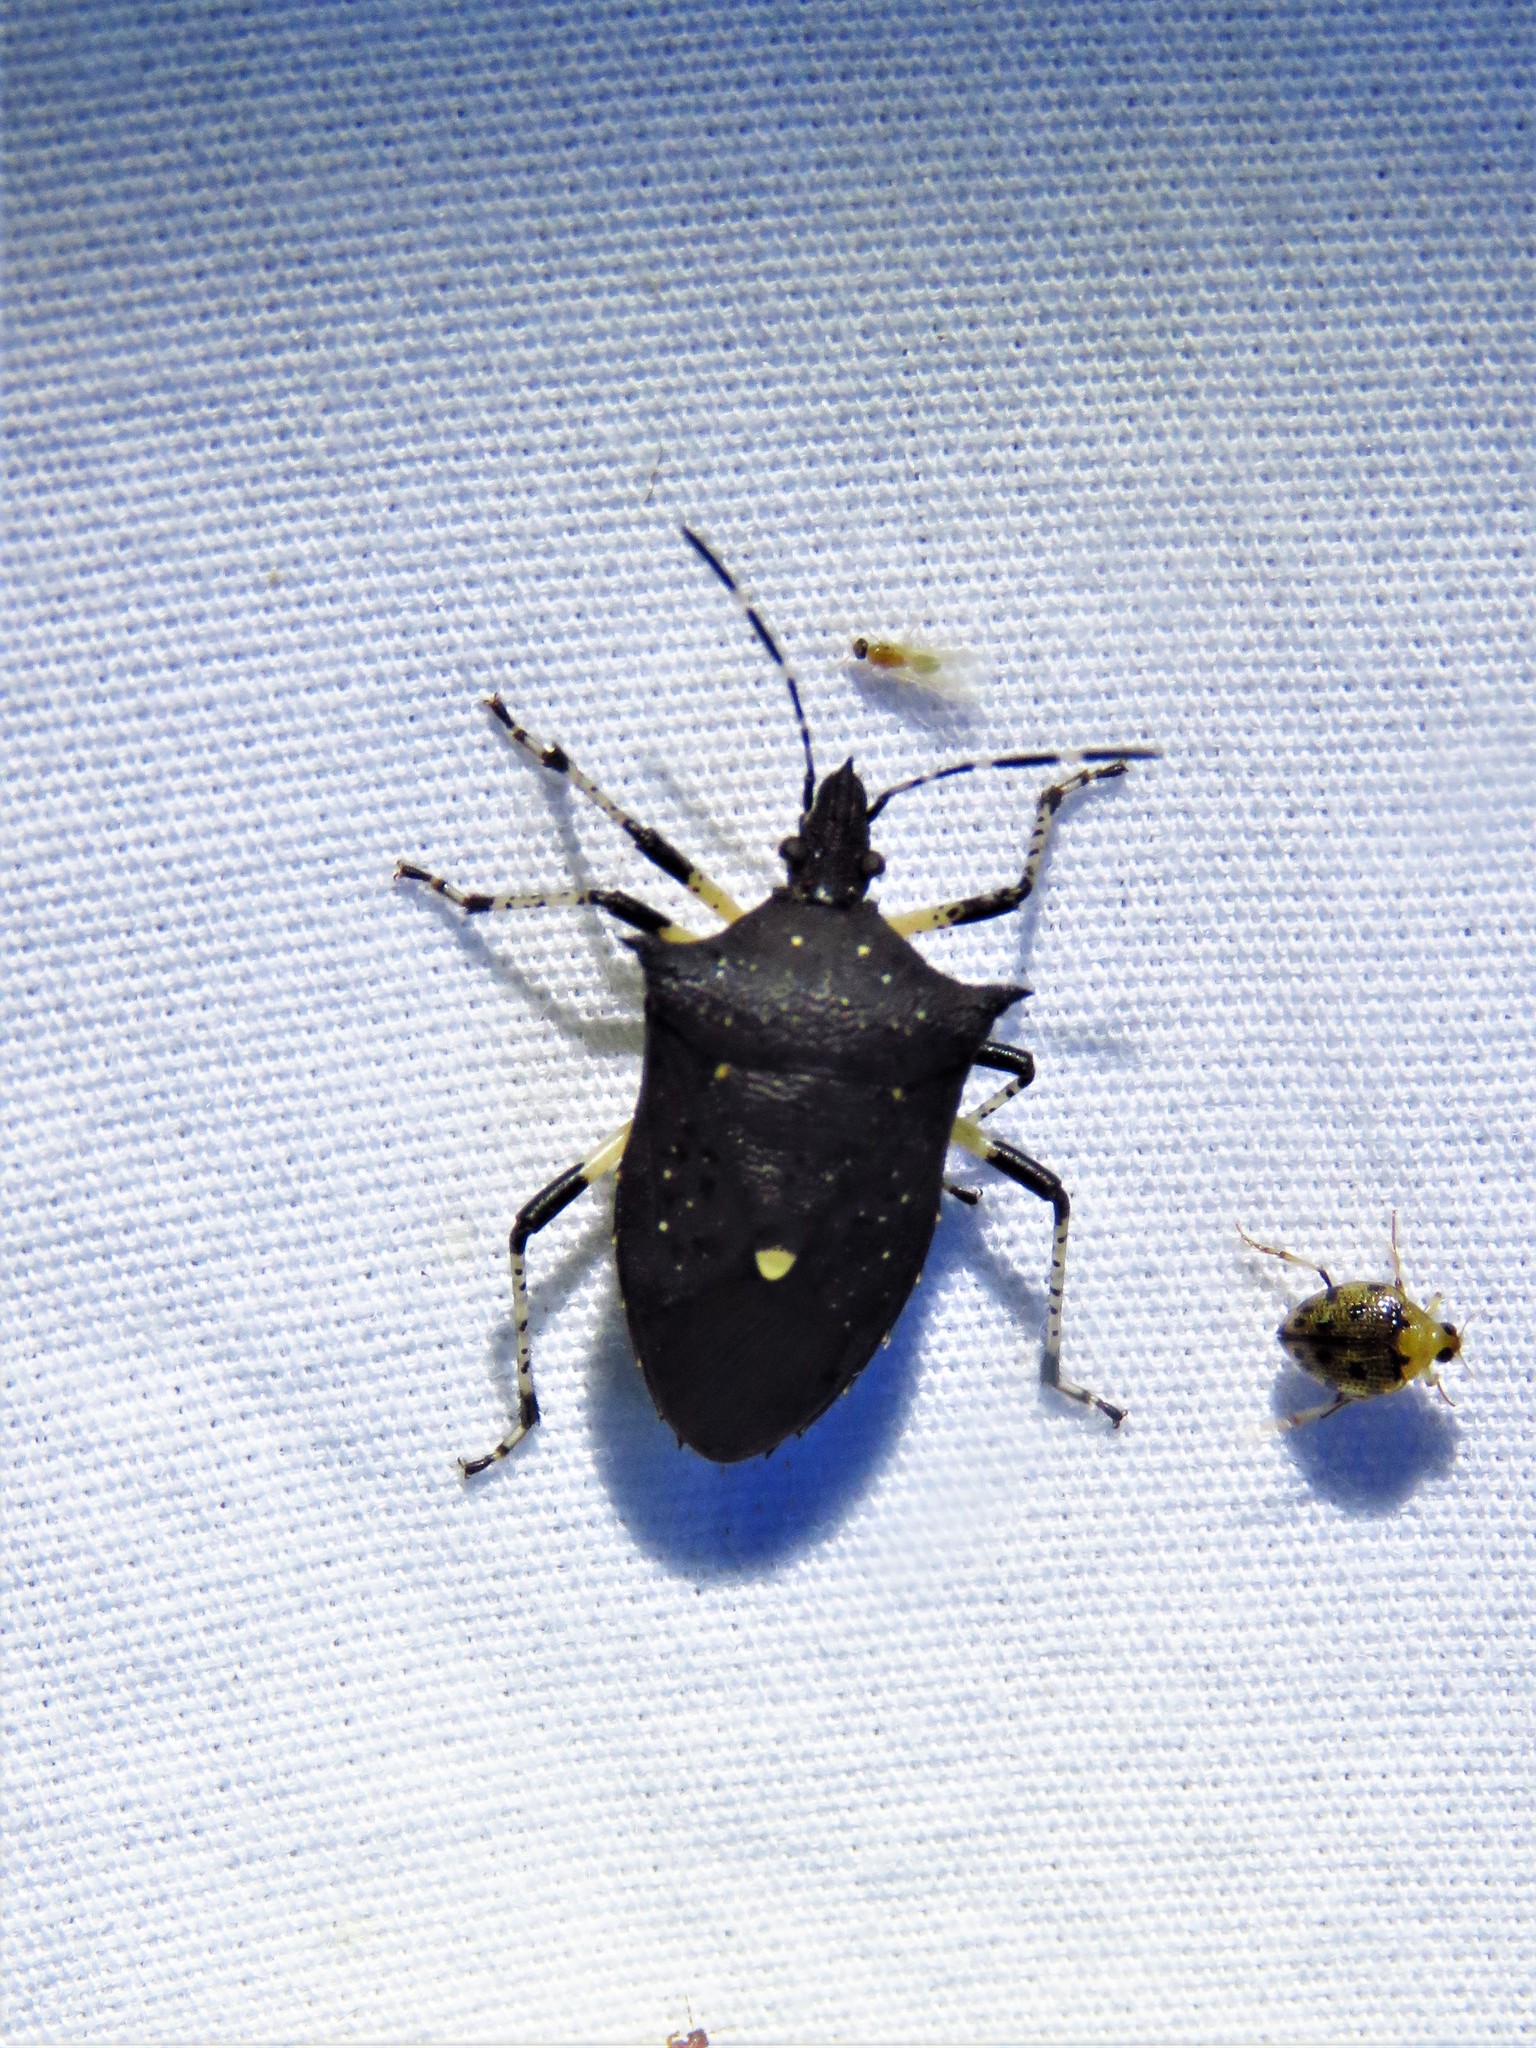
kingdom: Animalia
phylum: Arthropoda
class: Insecta
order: Hemiptera
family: Pentatomidae
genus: Proxys
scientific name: Proxys punctulatus
